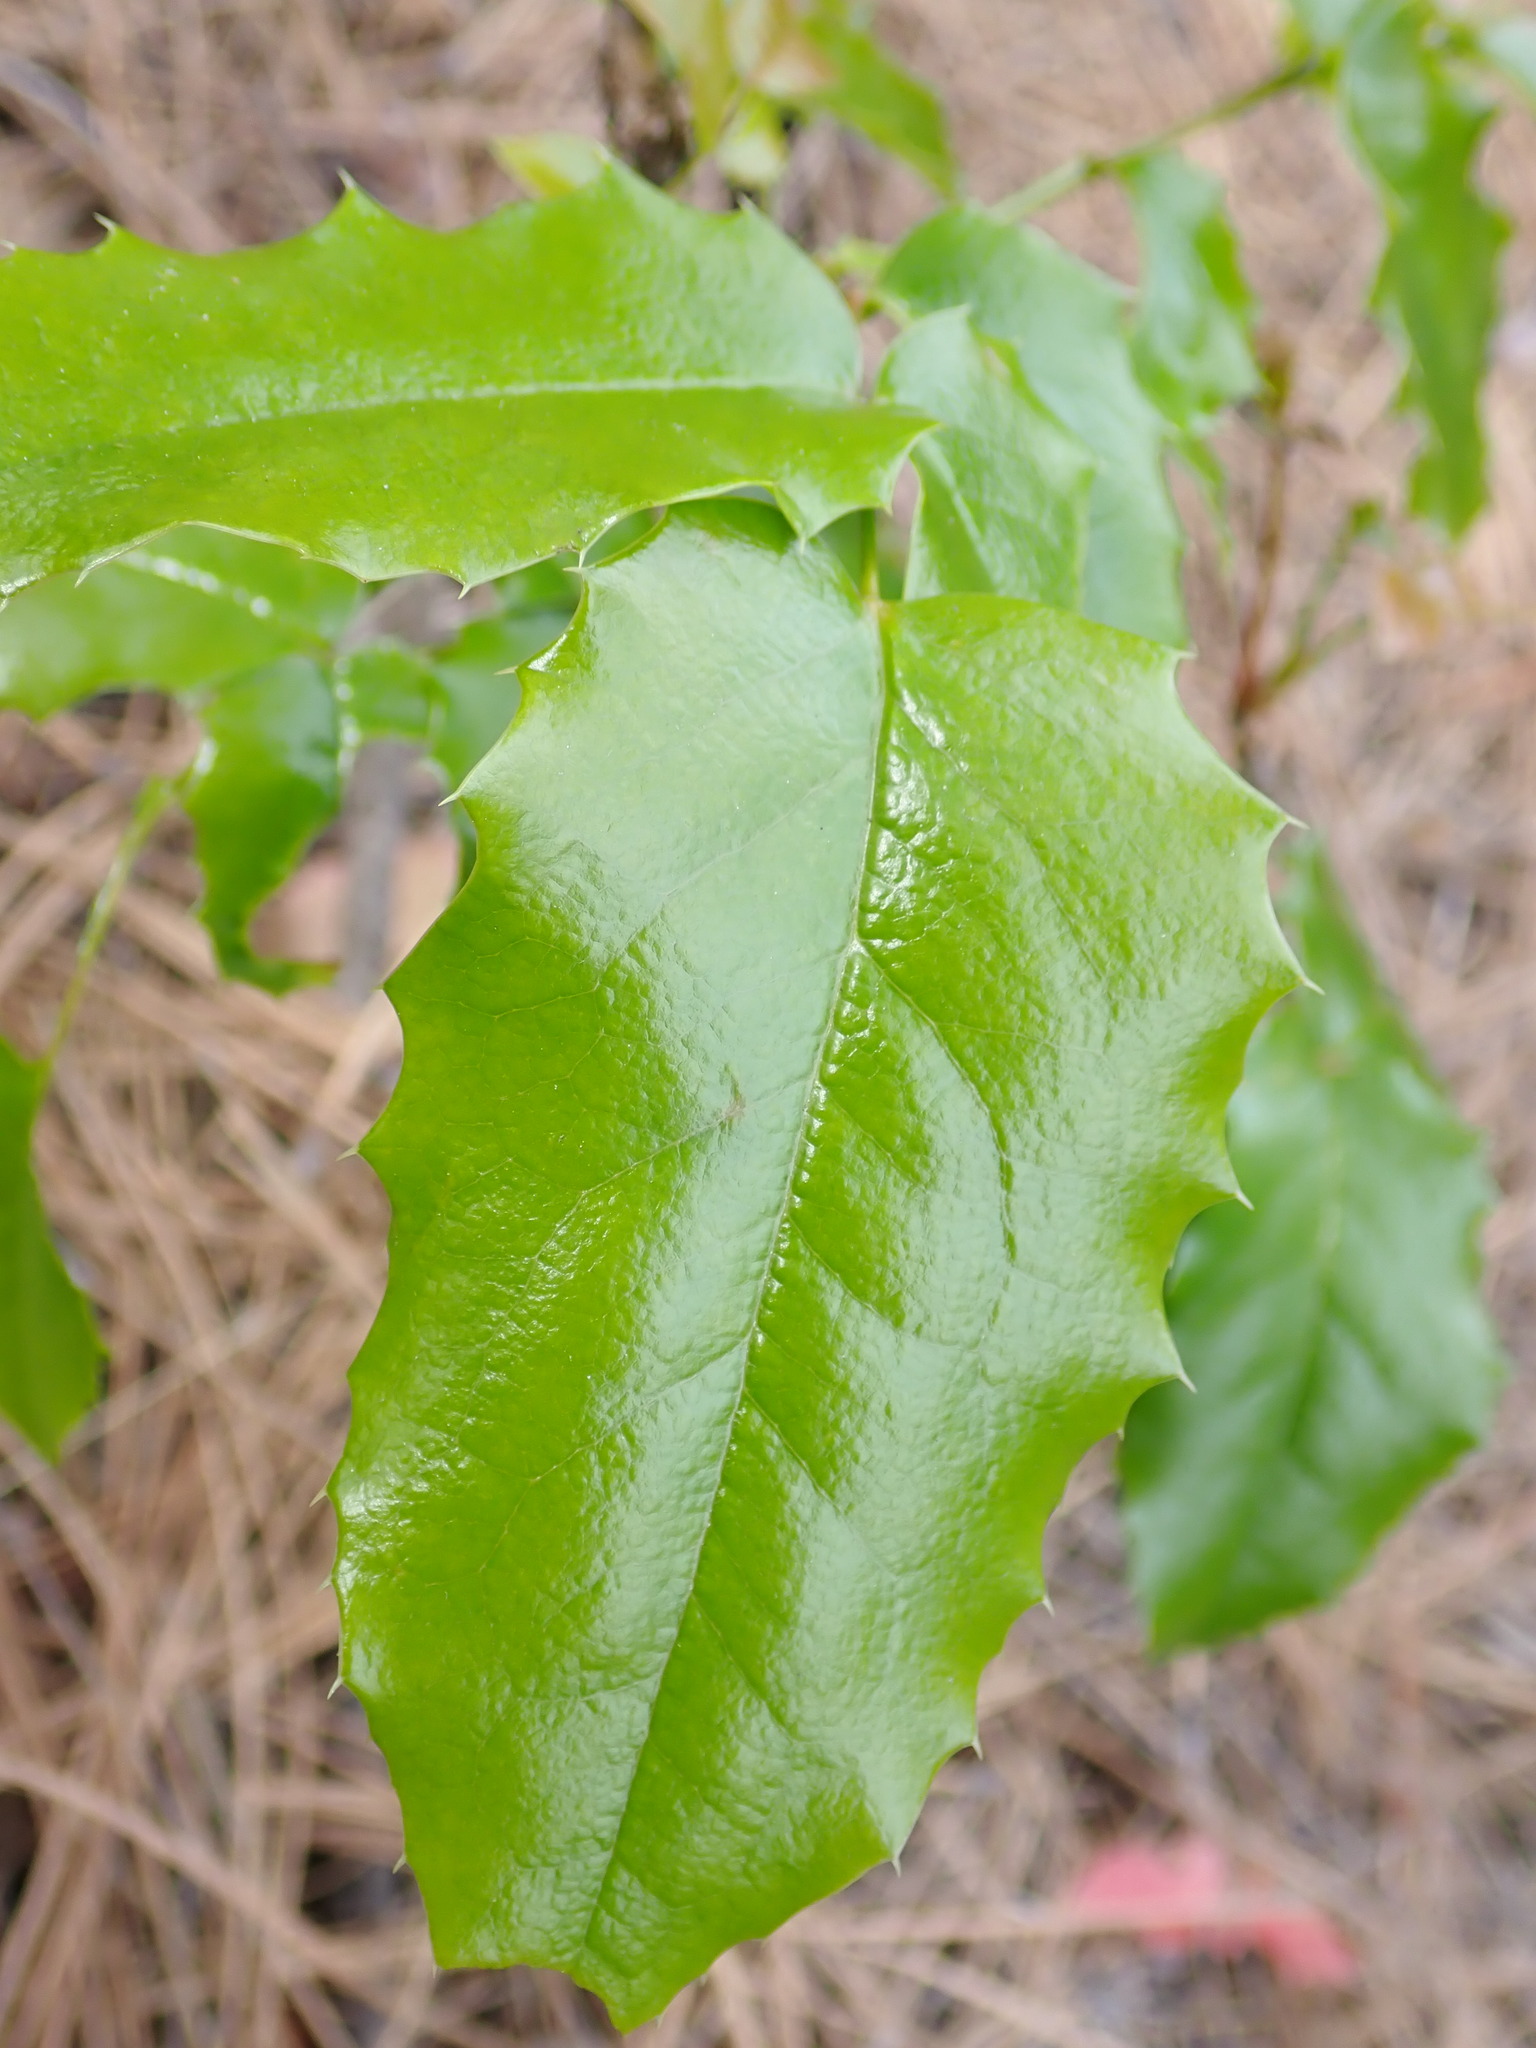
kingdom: Plantae
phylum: Tracheophyta
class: Magnoliopsida
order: Ranunculales
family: Berberidaceae
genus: Mahonia
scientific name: Mahonia aquifolium
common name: Oregon-grape
